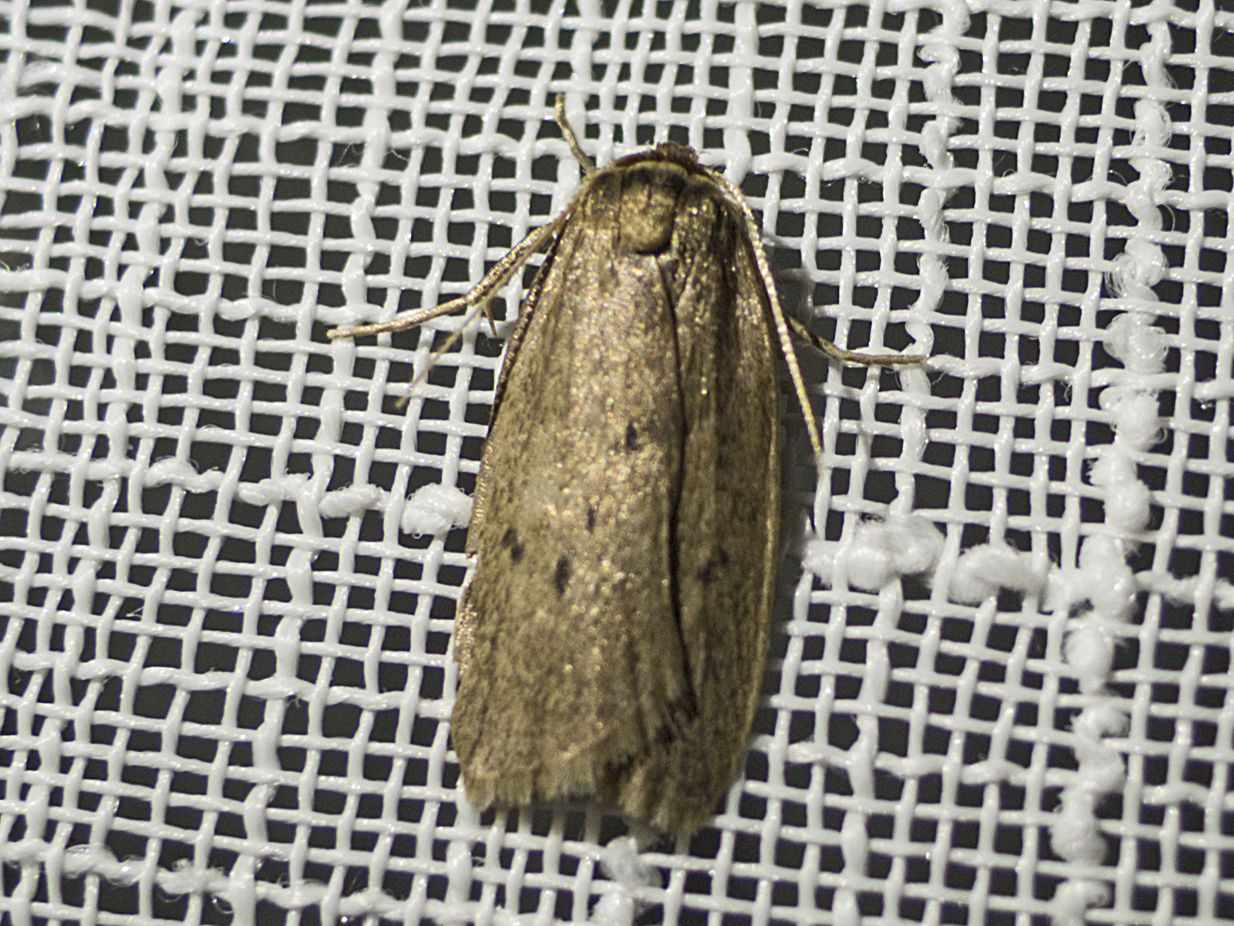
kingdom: Animalia
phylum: Arthropoda
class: Insecta
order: Lepidoptera
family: Erebidae
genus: Pelosia
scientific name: Pelosia obtusa
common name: Small dotted footman
